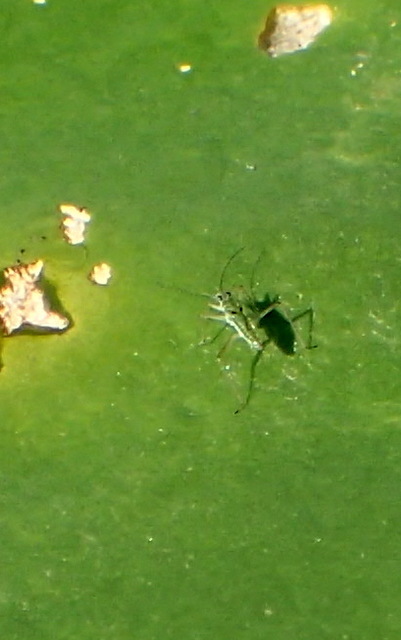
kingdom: Animalia
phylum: Arthropoda
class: Insecta
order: Hemiptera
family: Mesoveliidae
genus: Mesovelia
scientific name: Mesovelia
